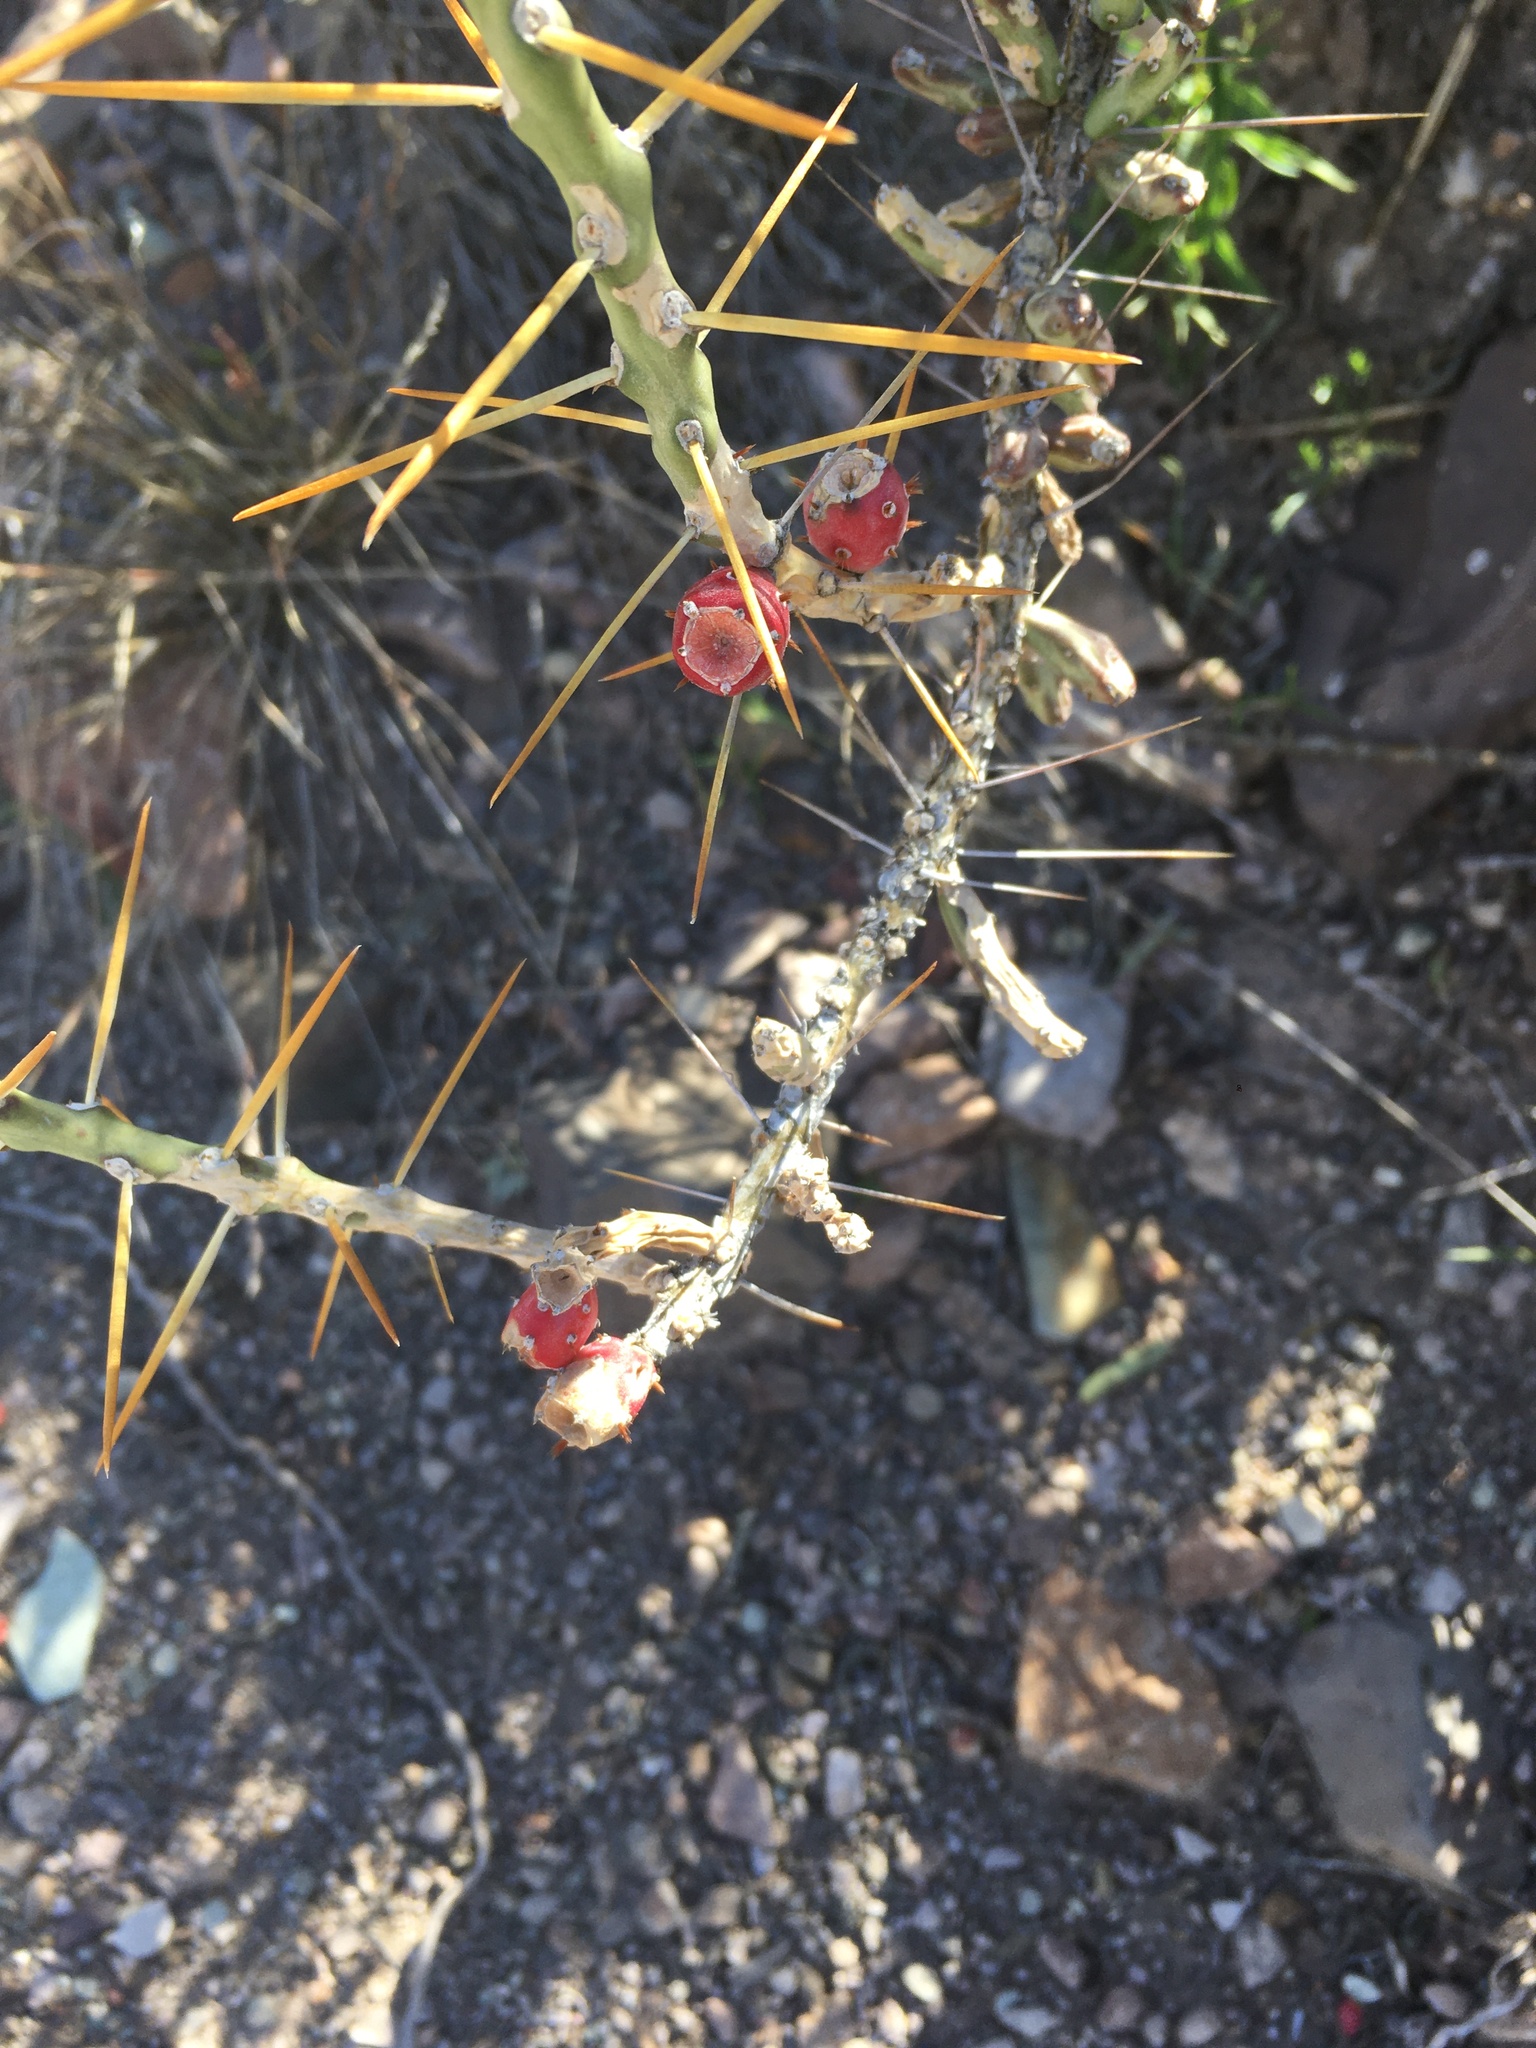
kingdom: Plantae
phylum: Tracheophyta
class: Magnoliopsida
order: Caryophyllales
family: Cactaceae
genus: Cylindropuntia
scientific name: Cylindropuntia leptocaulis
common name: Christmas cactus
